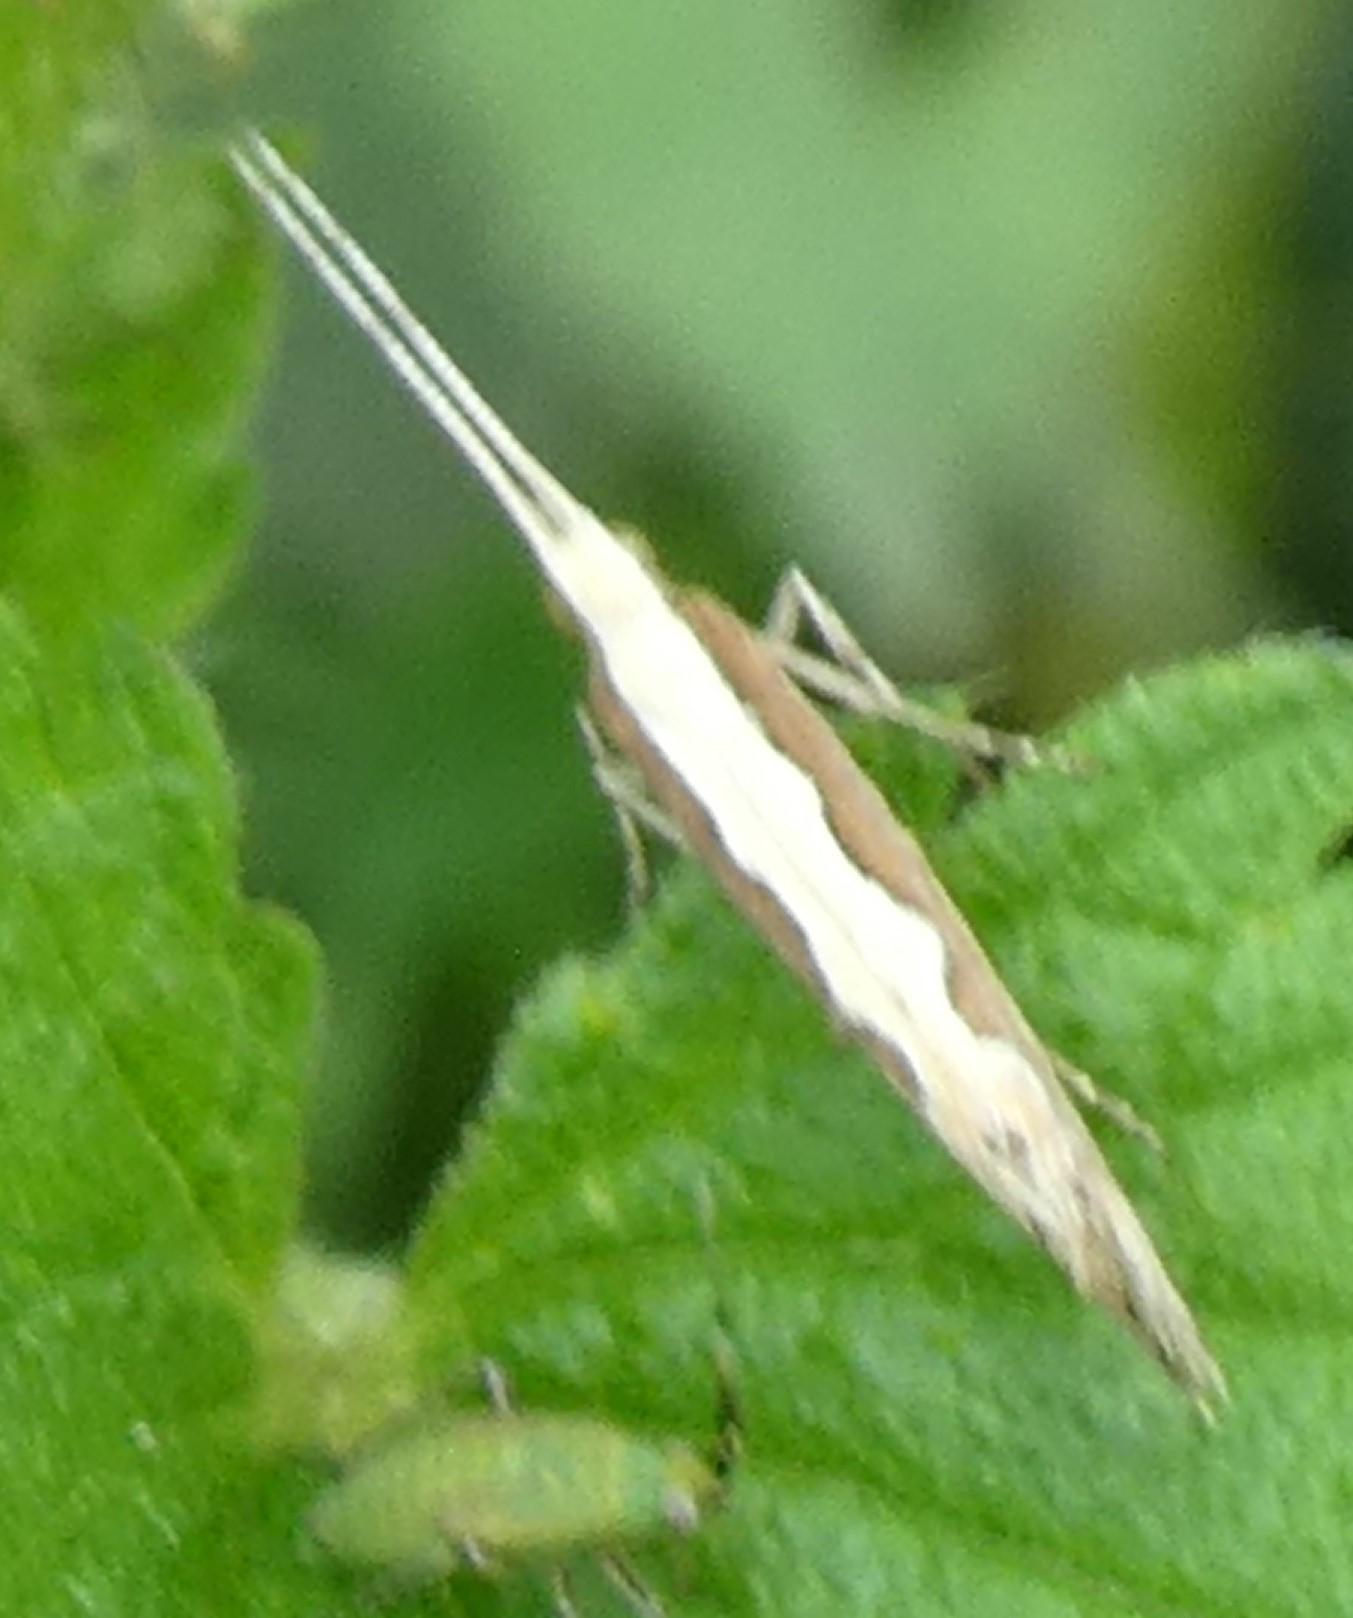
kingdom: Animalia
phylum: Arthropoda
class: Insecta
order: Lepidoptera
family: Plutellidae
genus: Plutella
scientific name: Plutella xylostella
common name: Diamond-back moth
